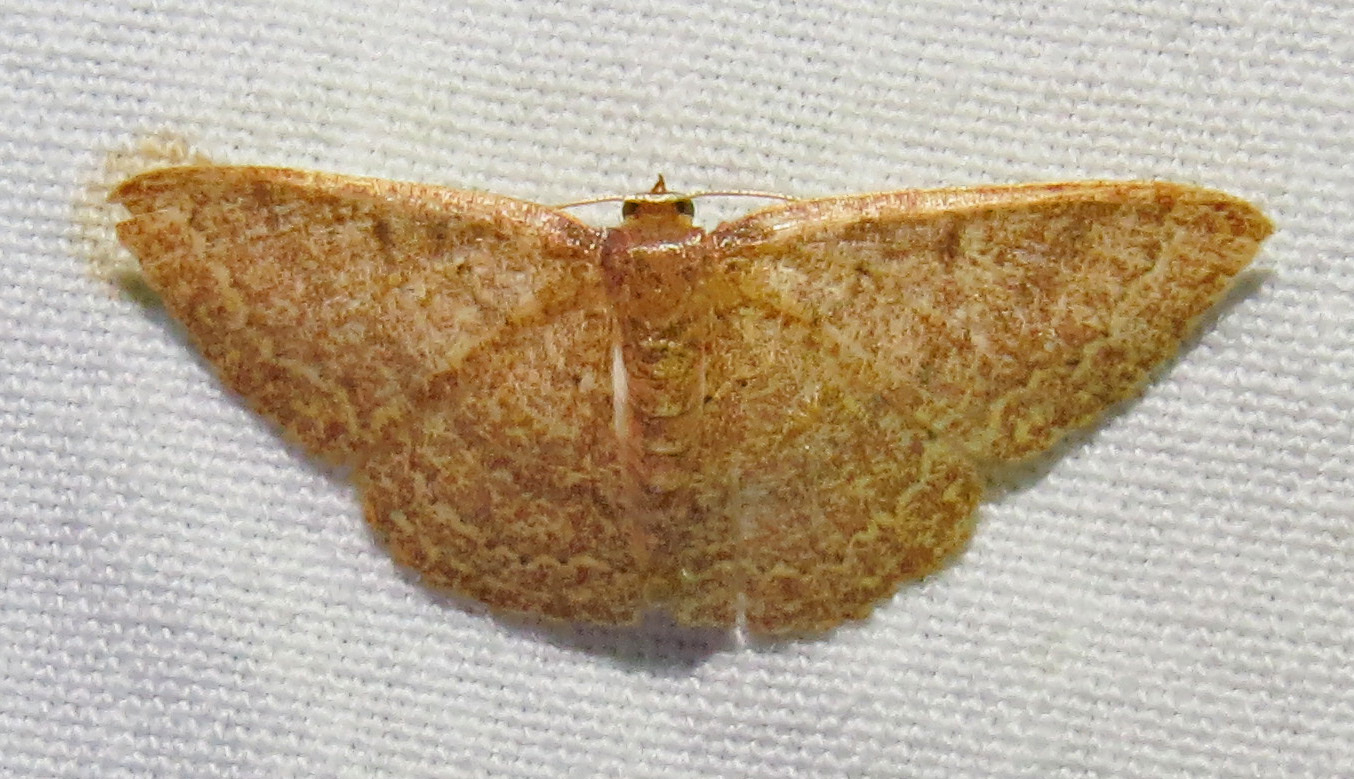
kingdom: Animalia
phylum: Arthropoda
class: Insecta
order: Lepidoptera
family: Geometridae
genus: Pleuroprucha
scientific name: Pleuroprucha insulsaria
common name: Common tan wave
